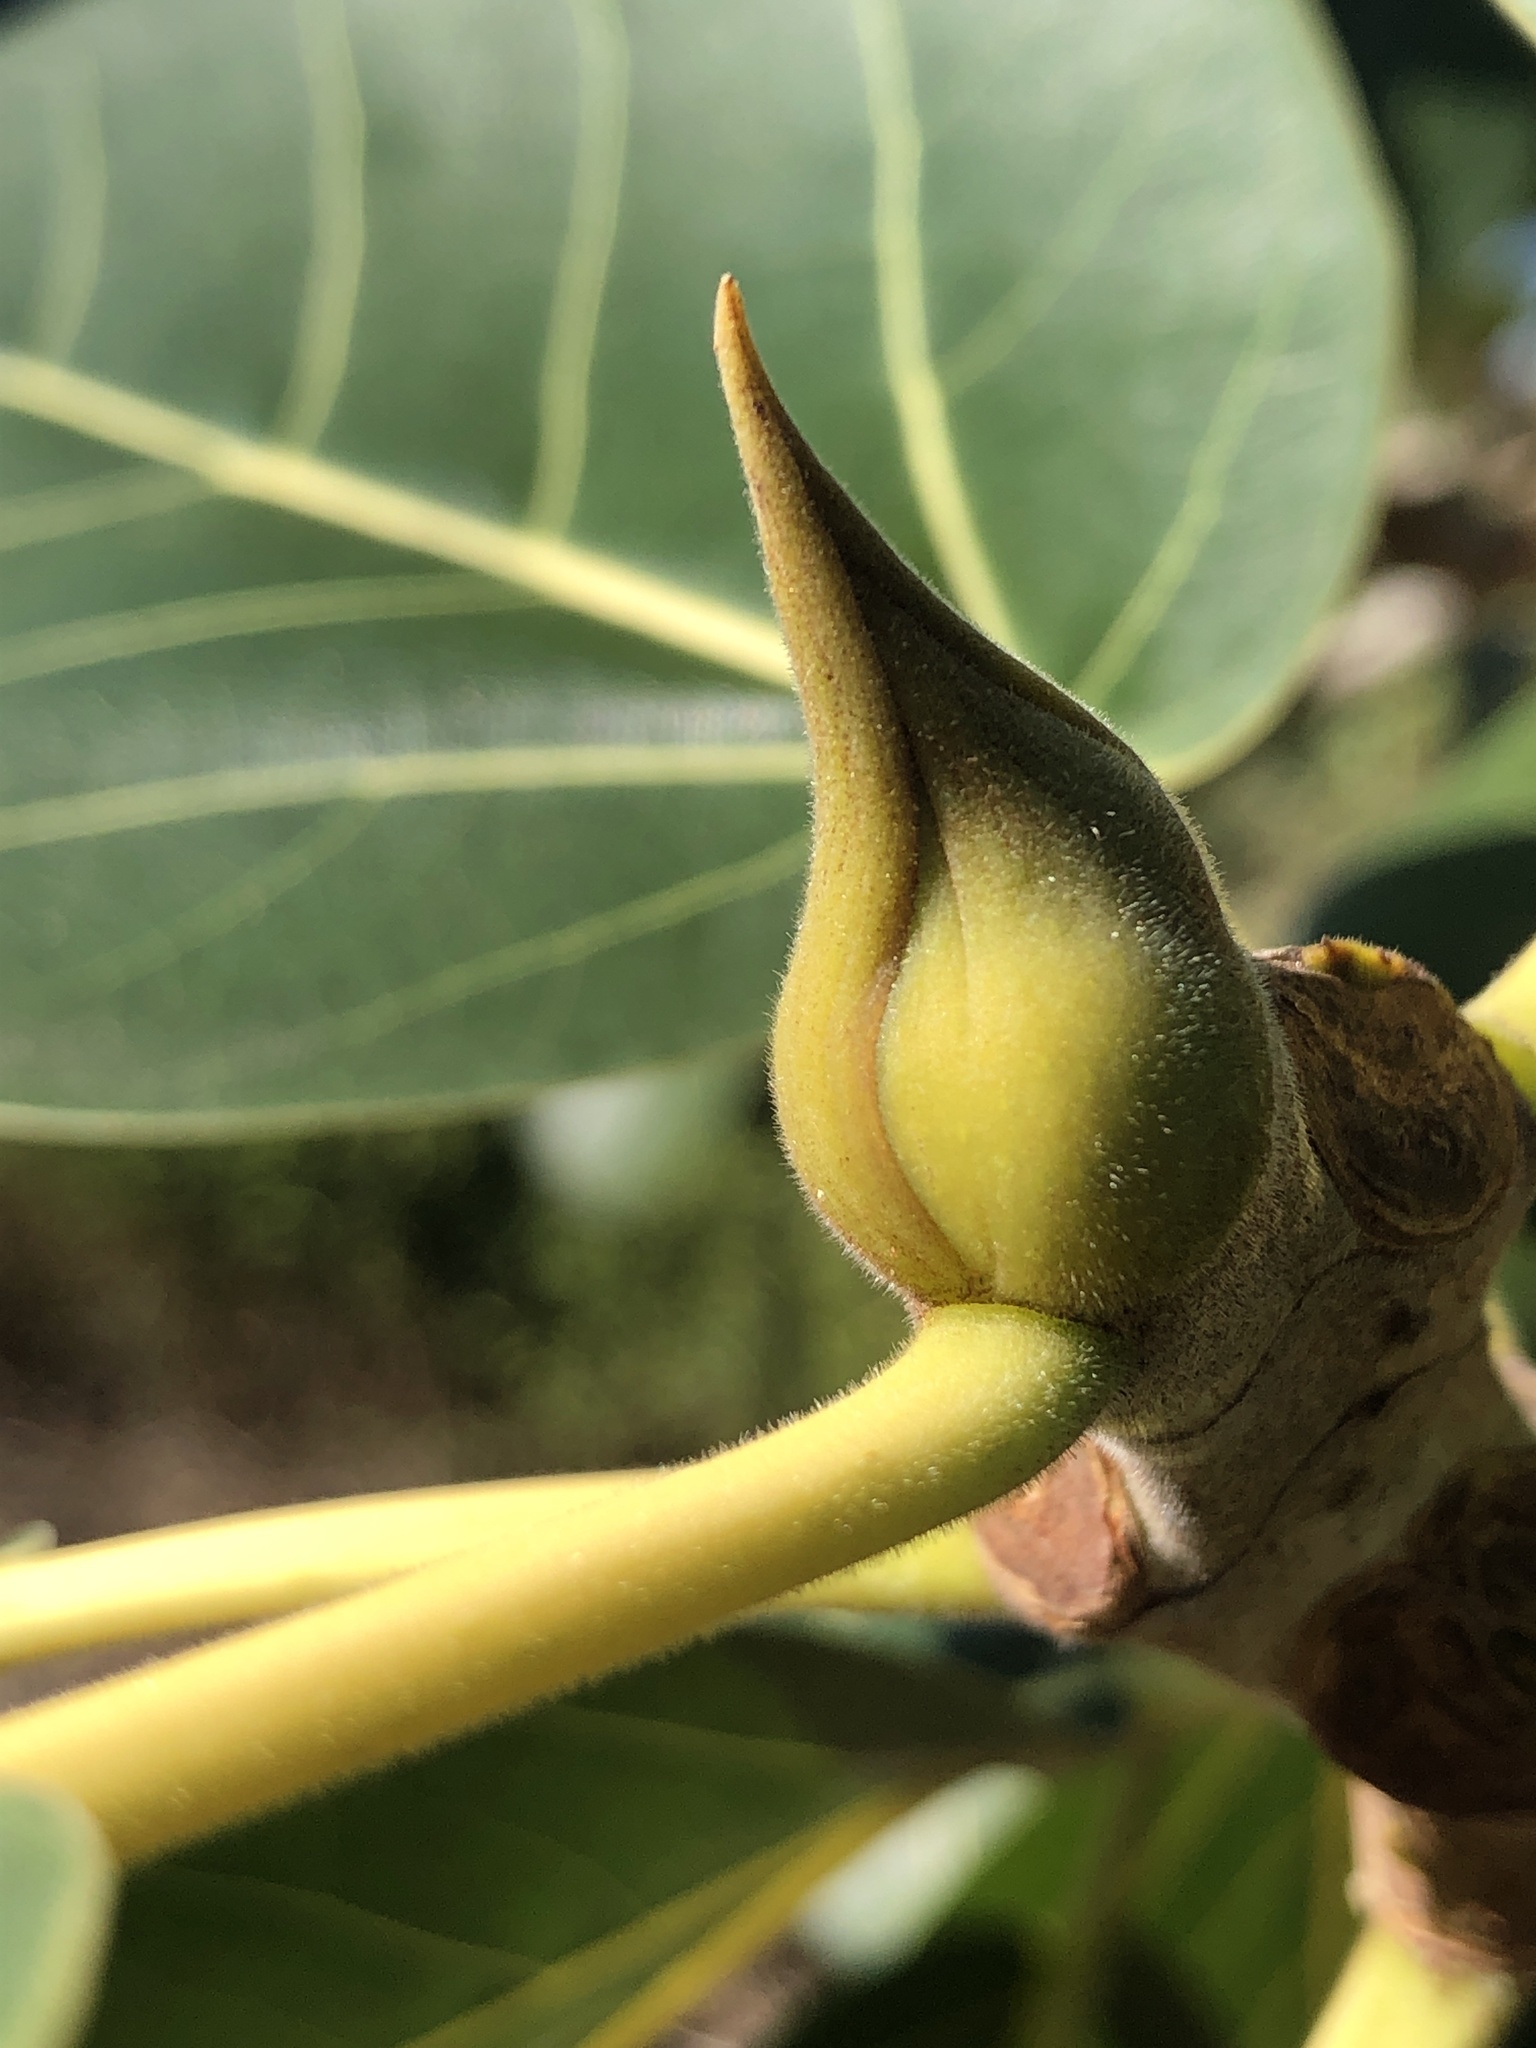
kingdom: Plantae
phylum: Tracheophyta
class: Magnoliopsida
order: Rosales
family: Moraceae
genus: Ficus
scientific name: Ficus benghalensis
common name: Indian banyan
